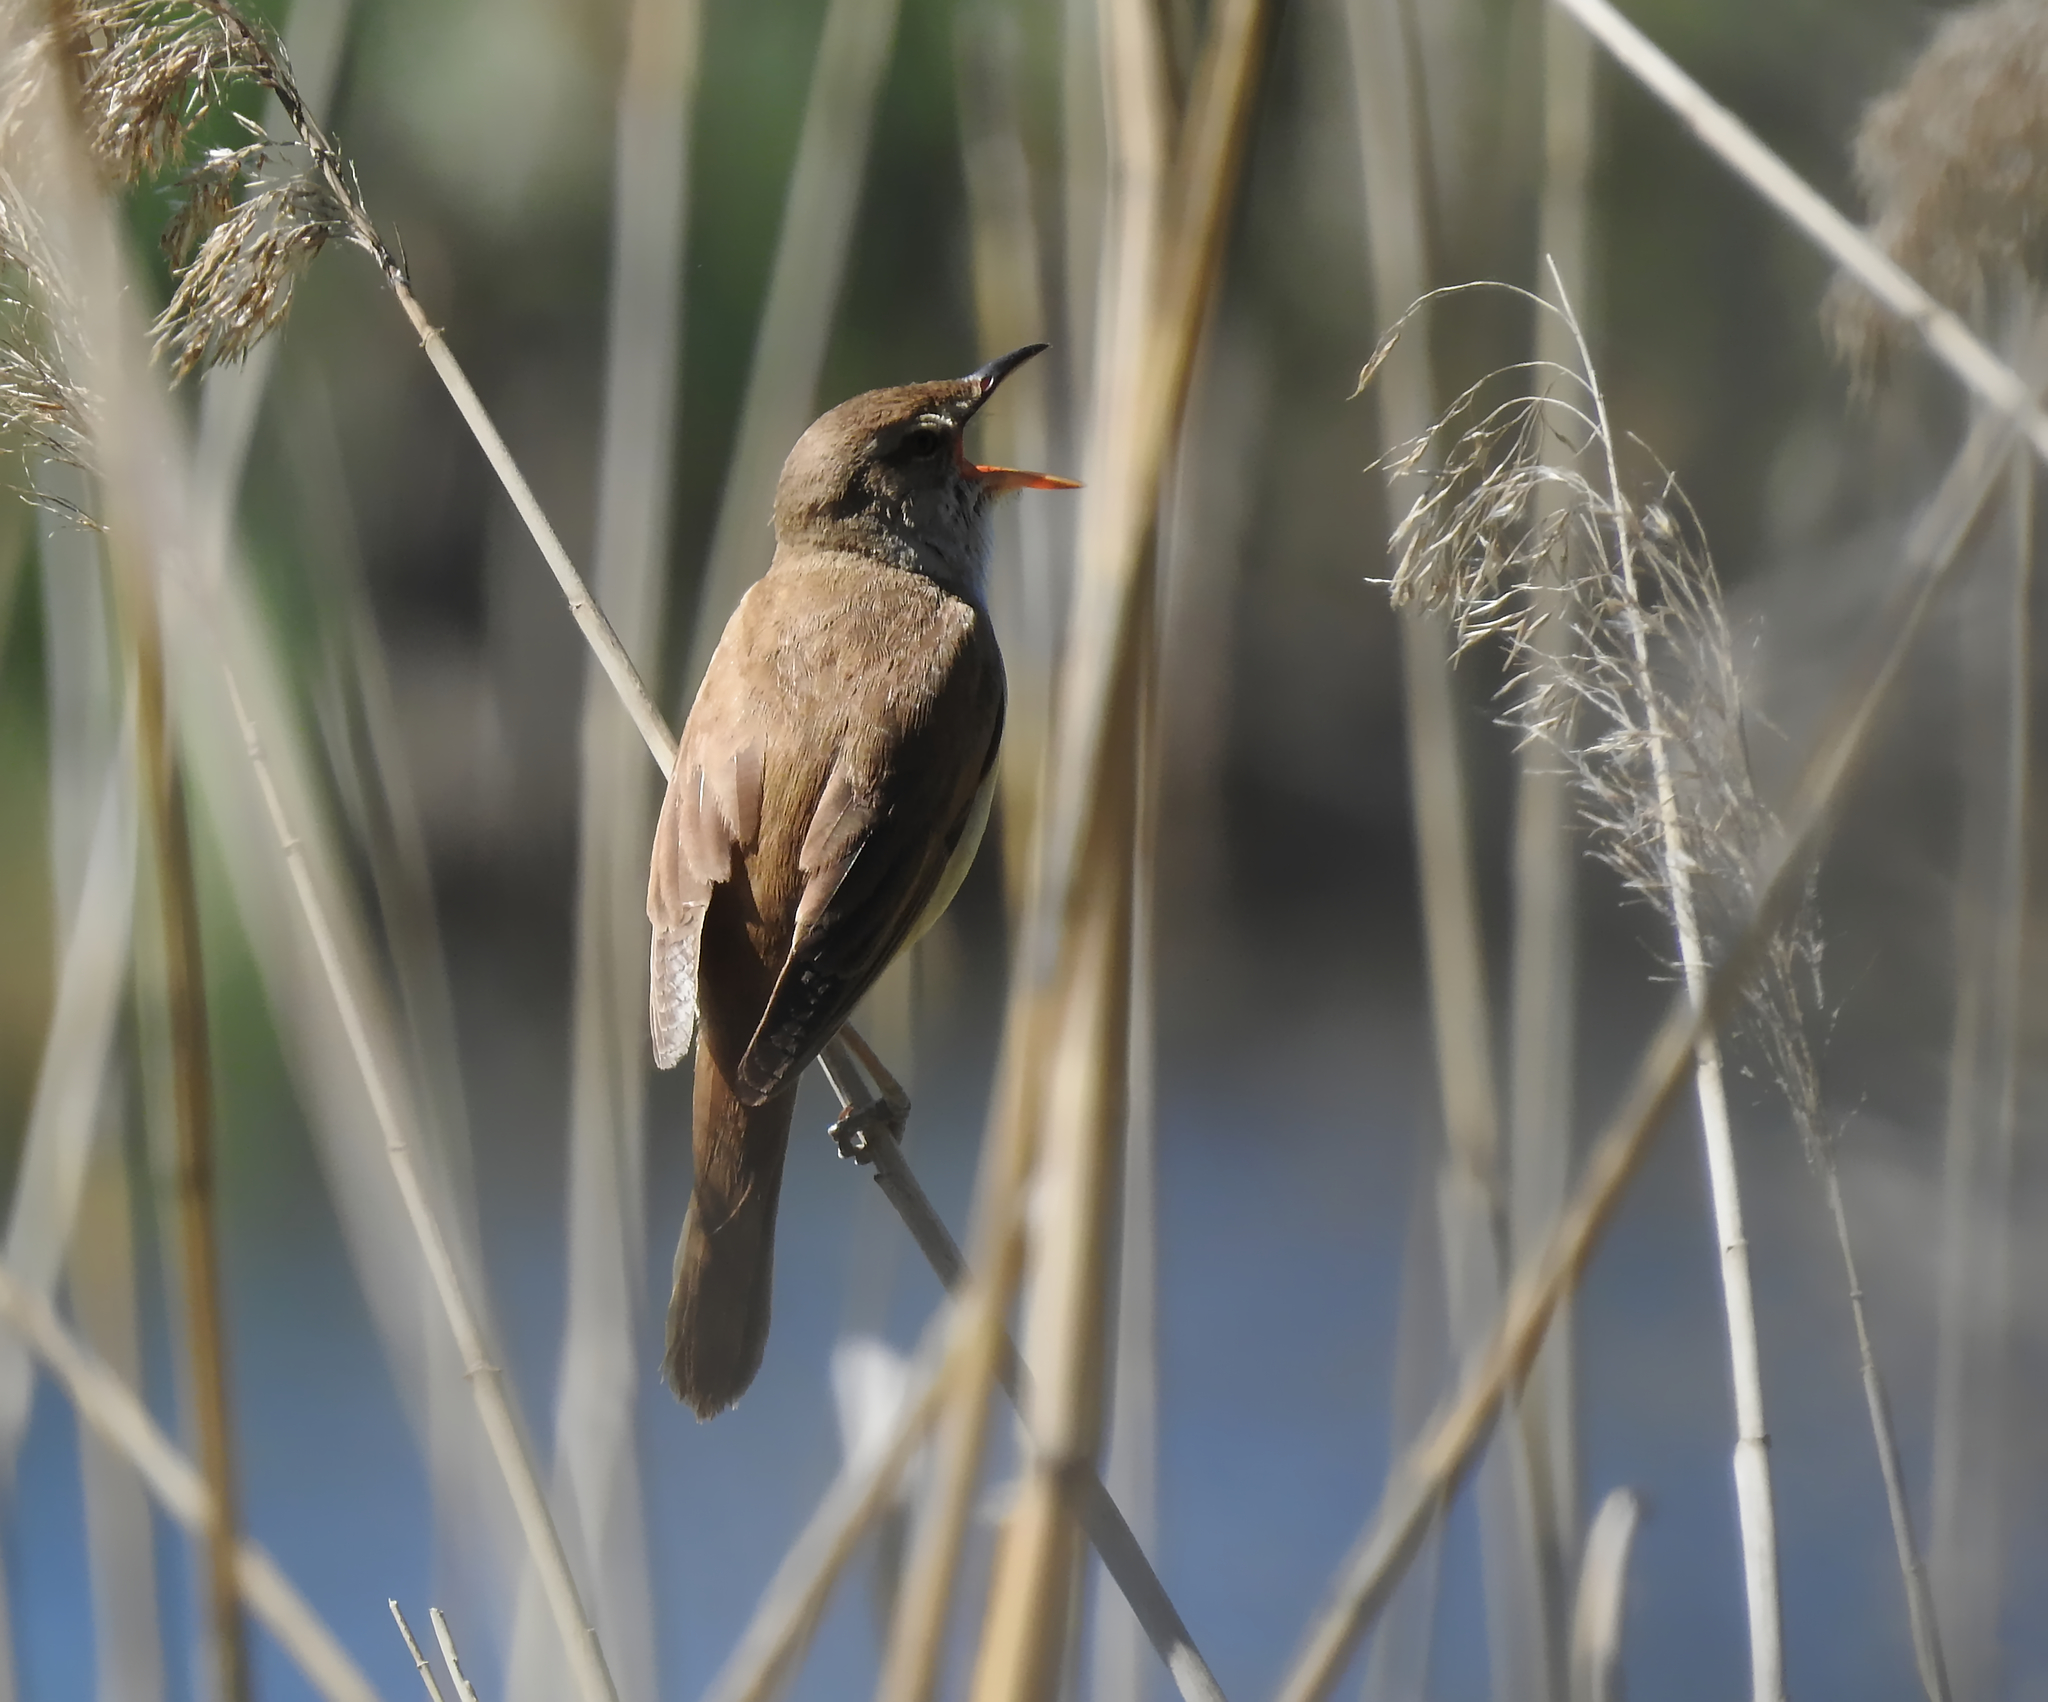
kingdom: Animalia
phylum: Chordata
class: Aves
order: Passeriformes
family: Acrocephalidae
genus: Acrocephalus
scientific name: Acrocephalus arundinaceus
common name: Great reed warbler
